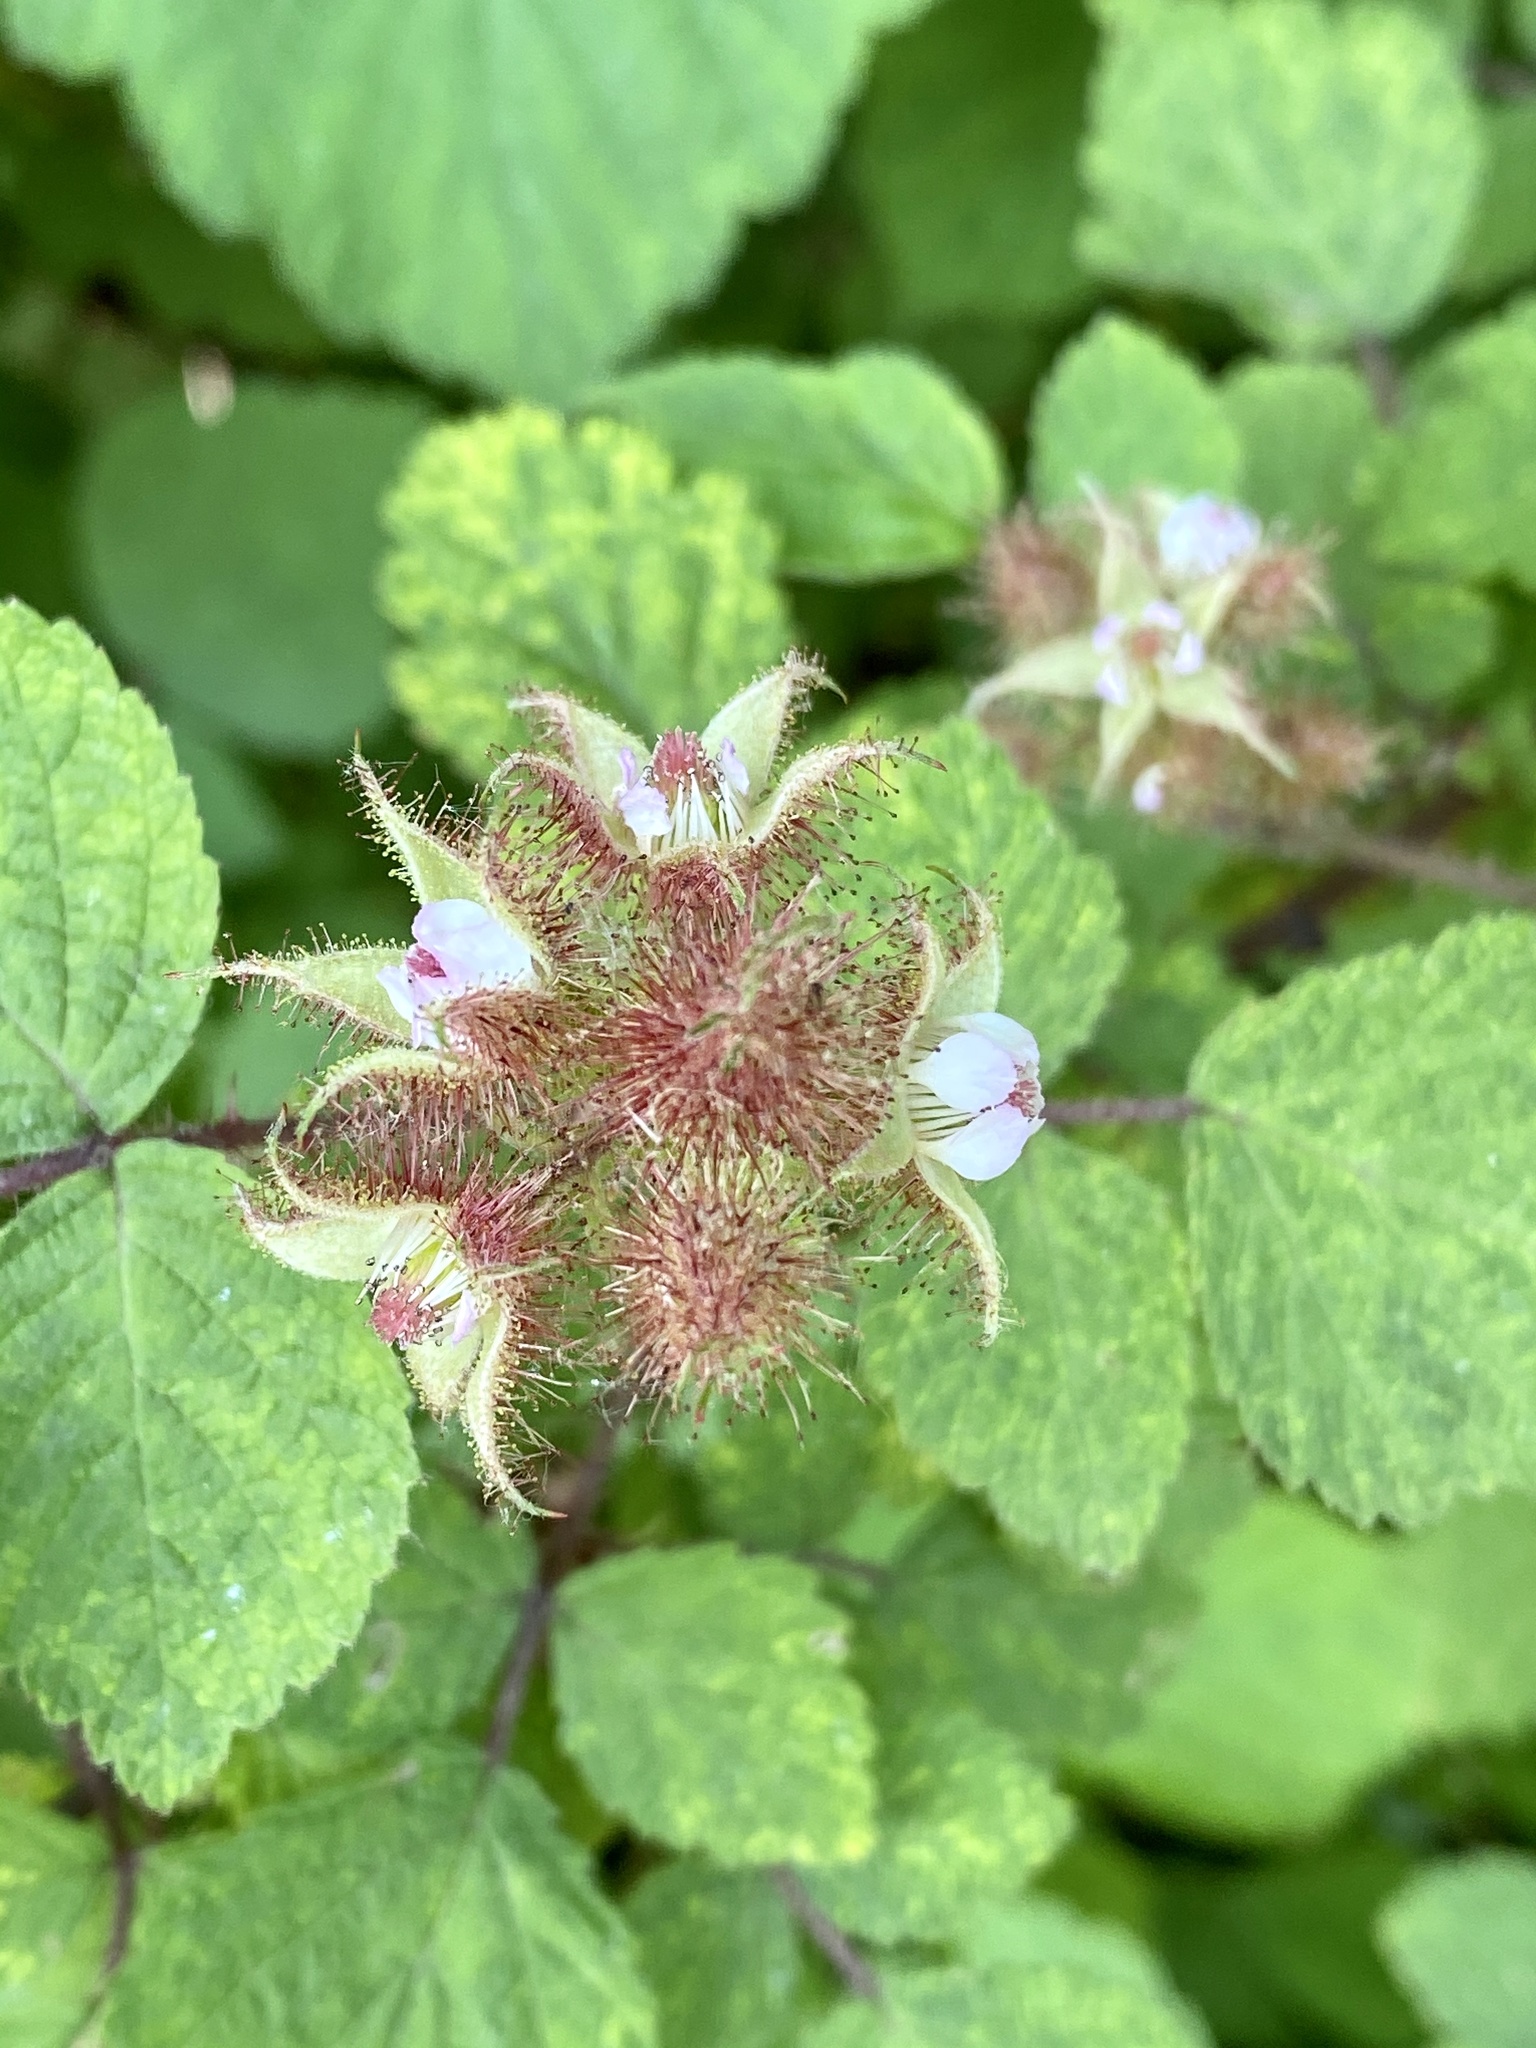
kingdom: Plantae
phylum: Tracheophyta
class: Magnoliopsida
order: Rosales
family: Rosaceae
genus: Rubus
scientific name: Rubus phoenicolasius
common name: Japanese wineberry
